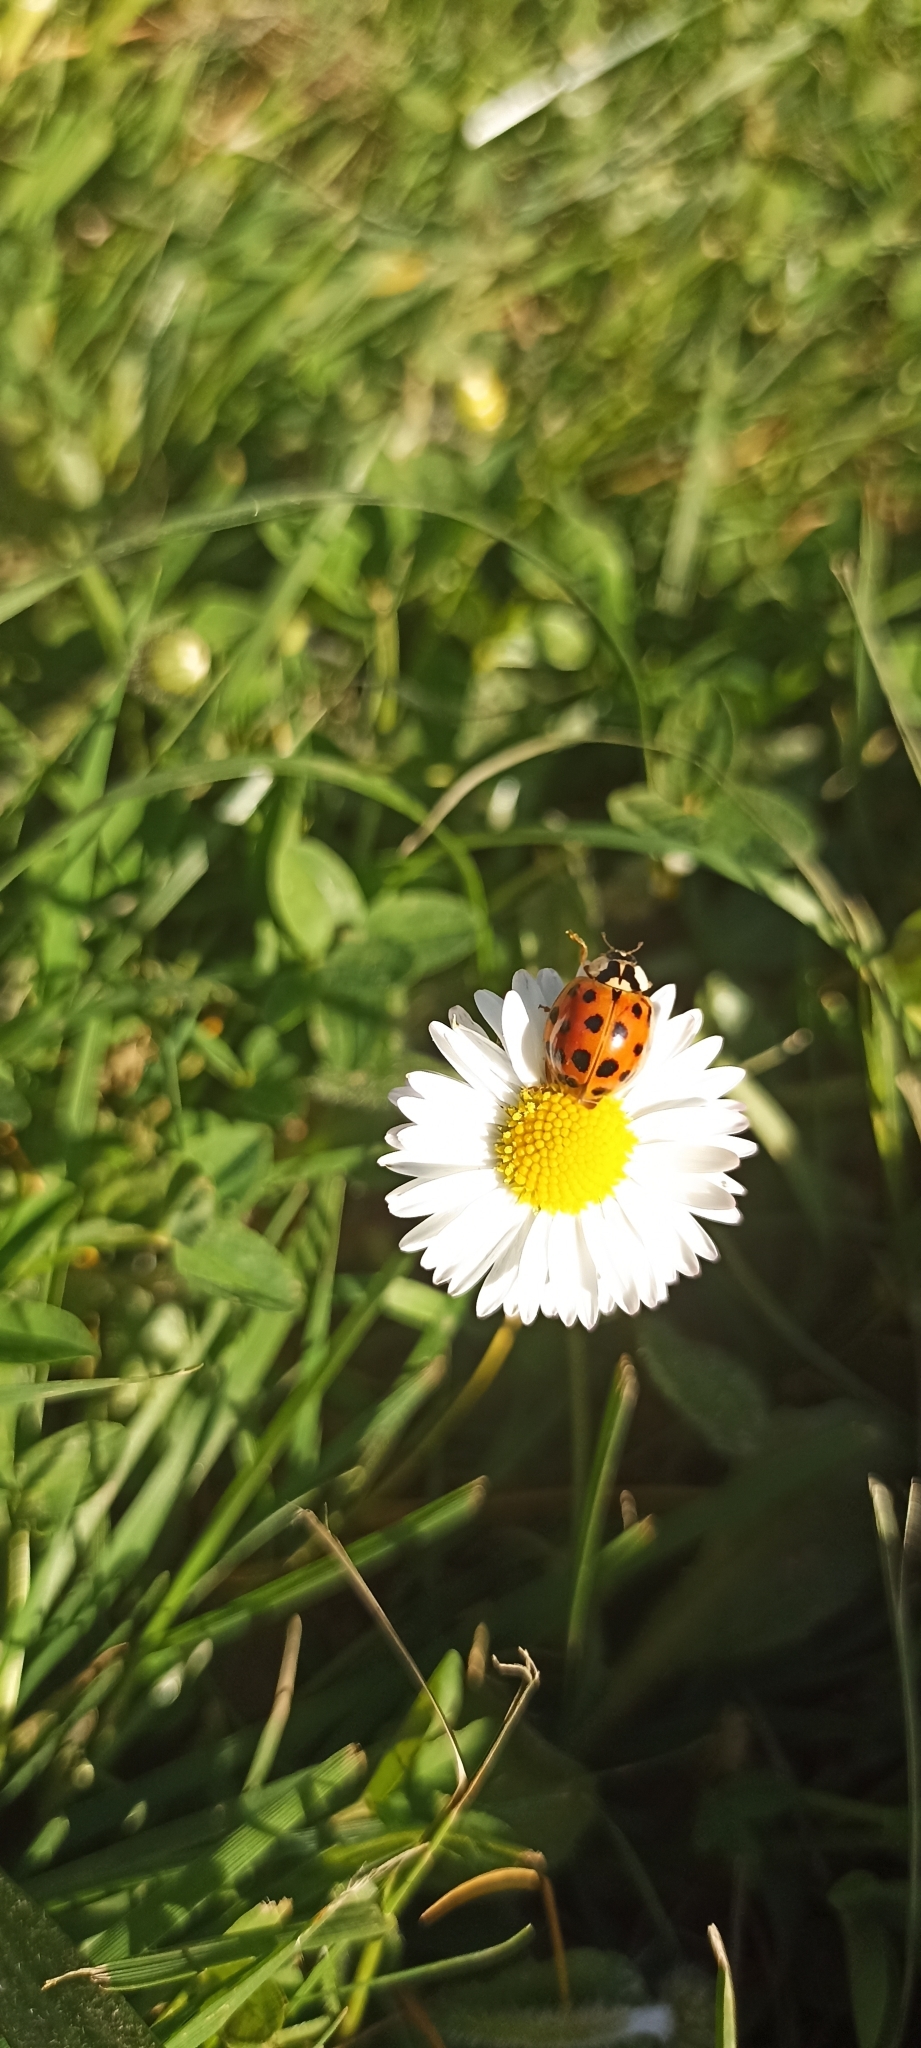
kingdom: Animalia
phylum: Arthropoda
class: Insecta
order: Coleoptera
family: Coccinellidae
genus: Harmonia
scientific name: Harmonia axyridis
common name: Harlequin ladybird
